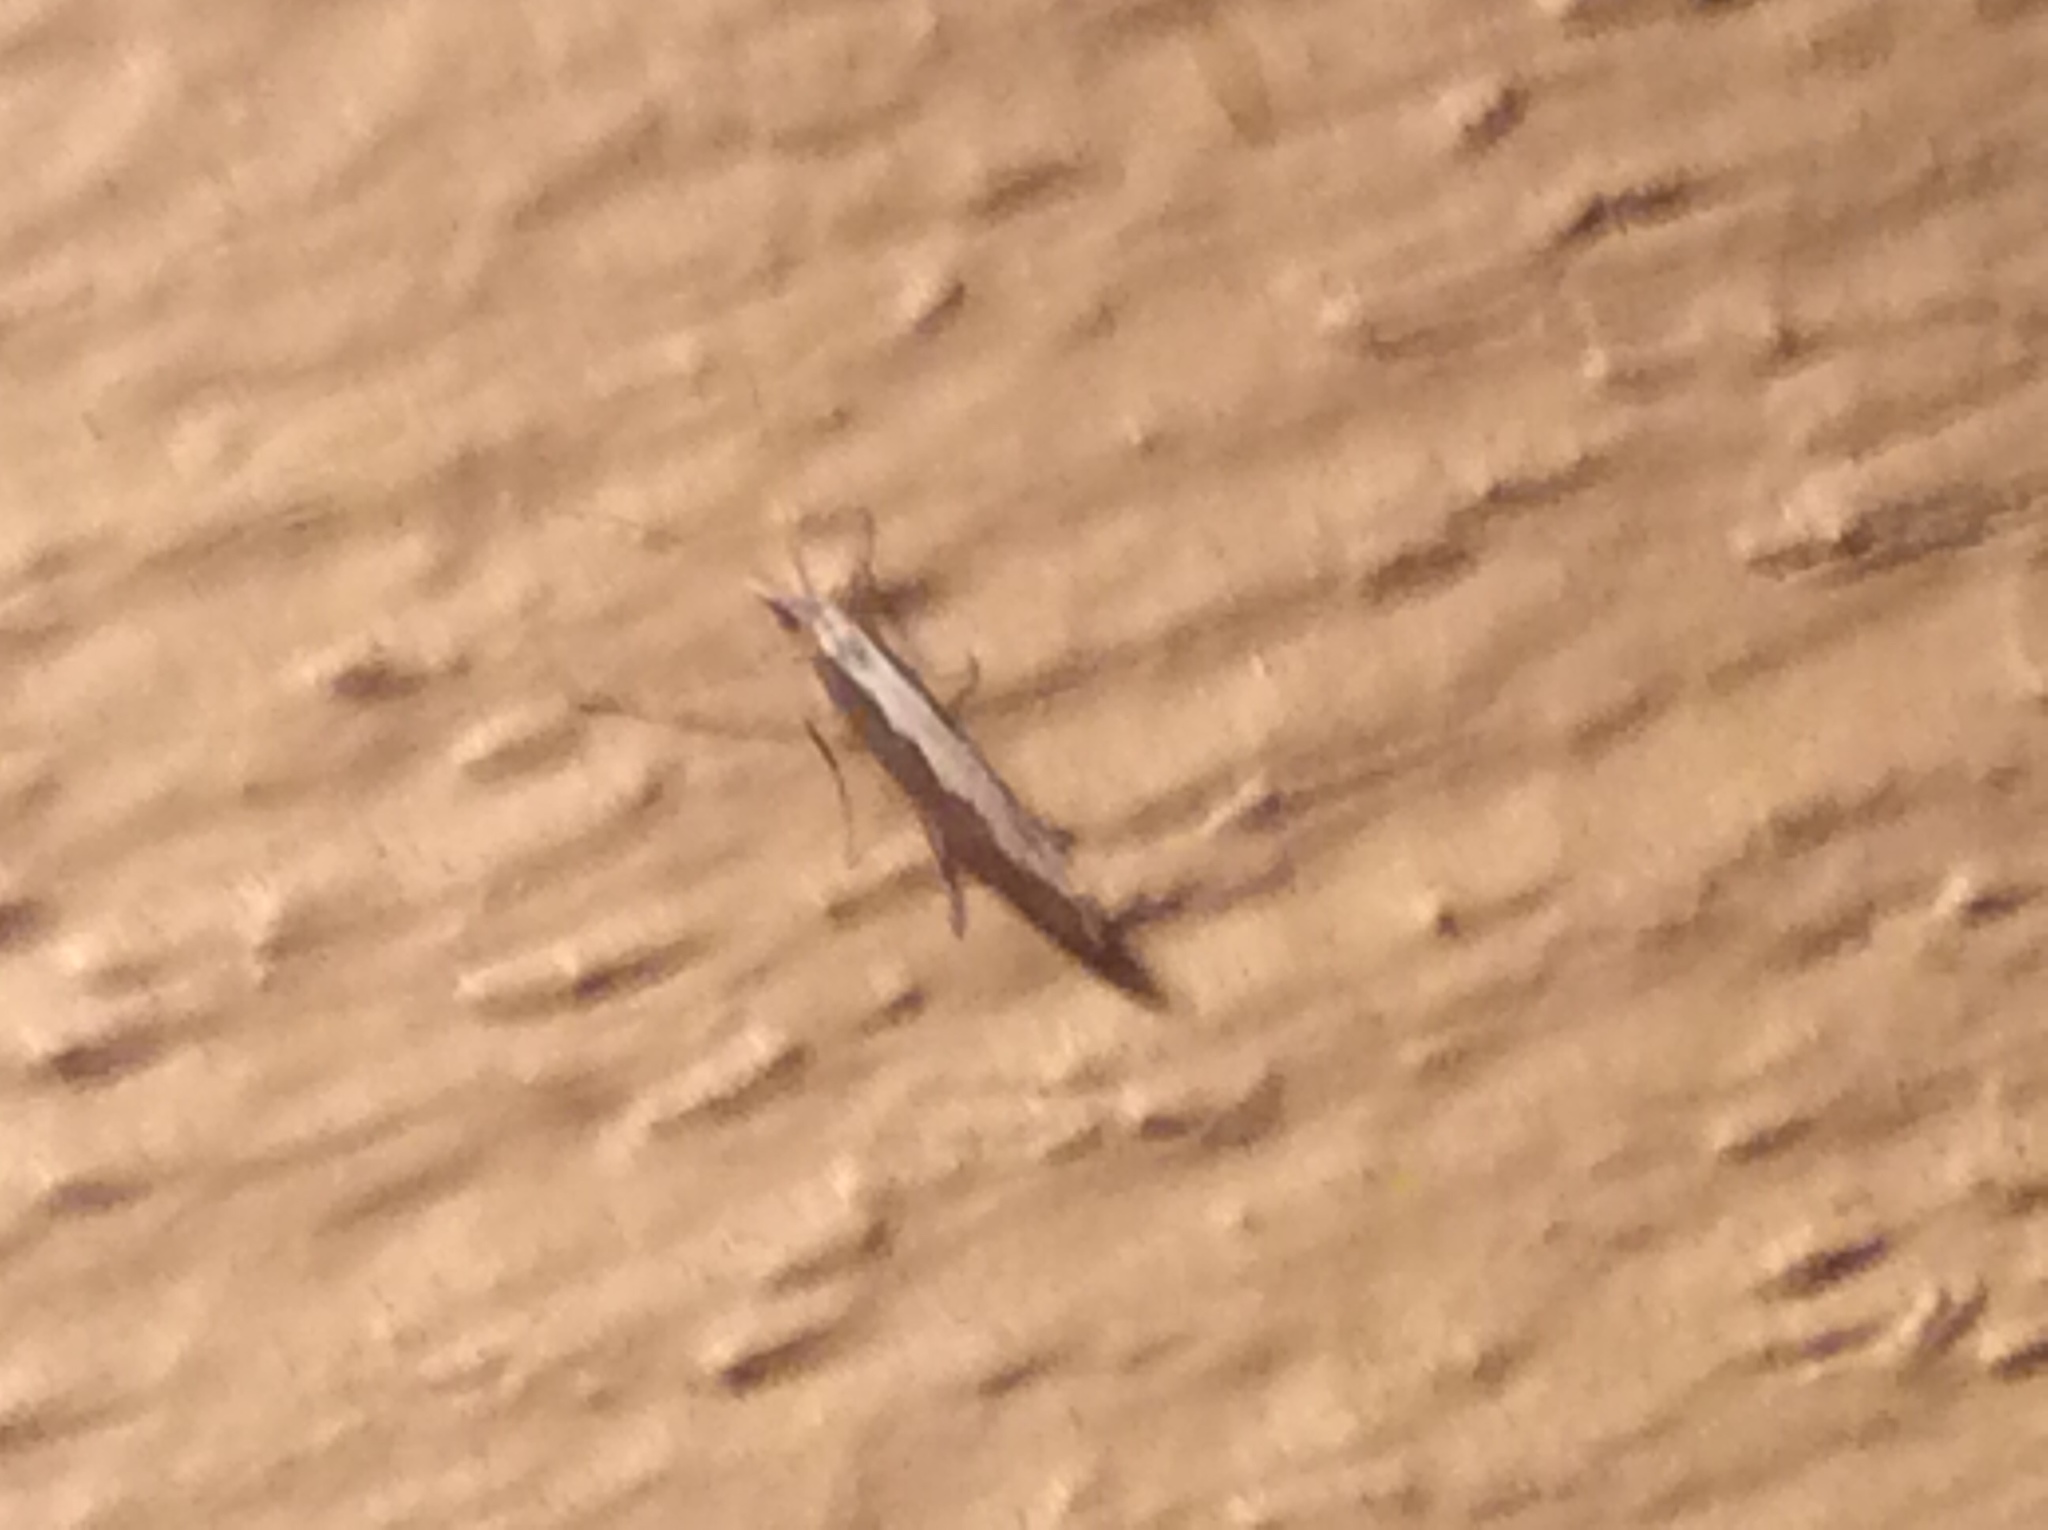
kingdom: Animalia
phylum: Arthropoda
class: Insecta
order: Lepidoptera
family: Plutellidae
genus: Plutella
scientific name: Plutella xylostella
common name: Diamond-back moth
